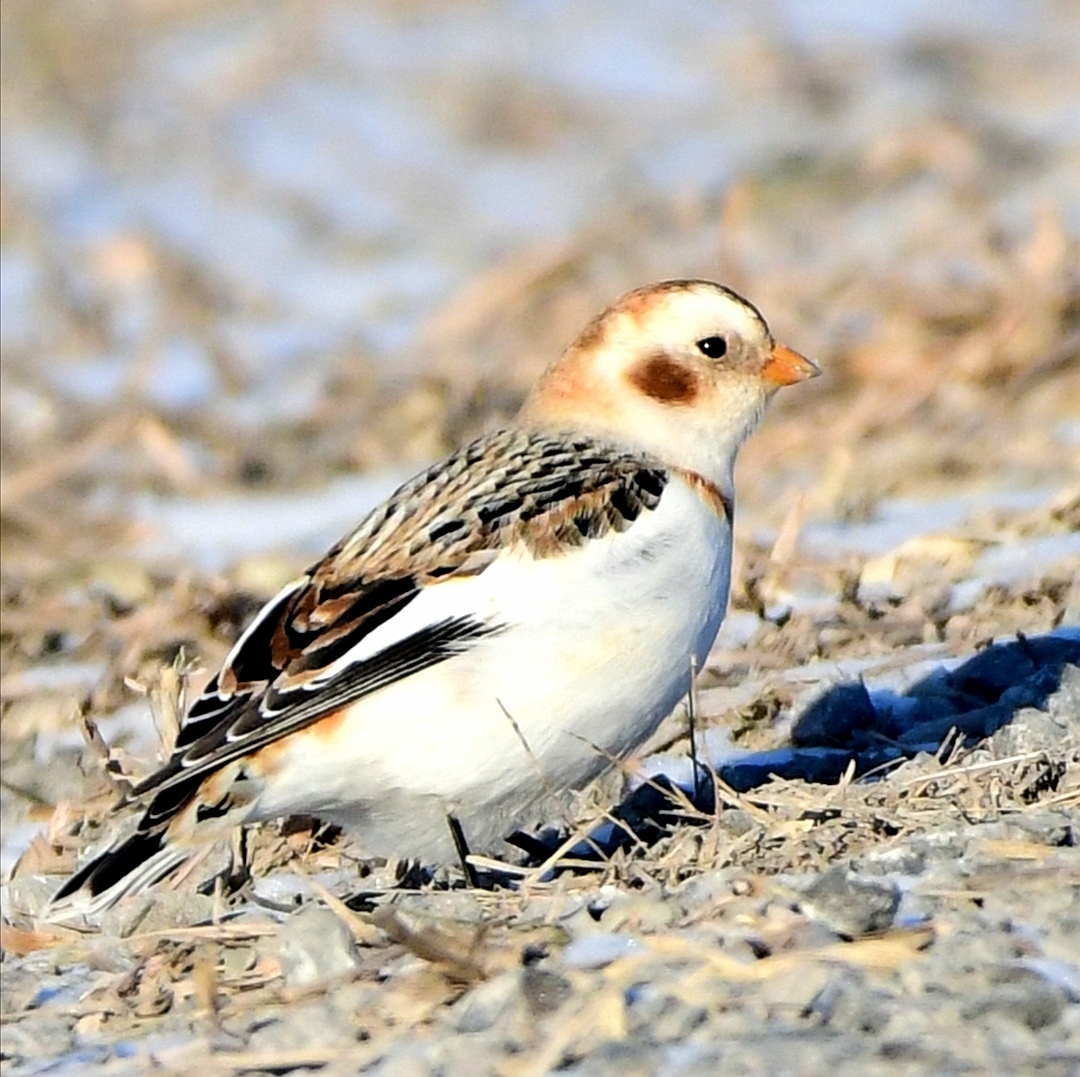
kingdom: Animalia
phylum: Chordata
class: Aves
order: Passeriformes
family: Calcariidae
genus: Plectrophenax
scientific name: Plectrophenax nivalis
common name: Snow bunting
